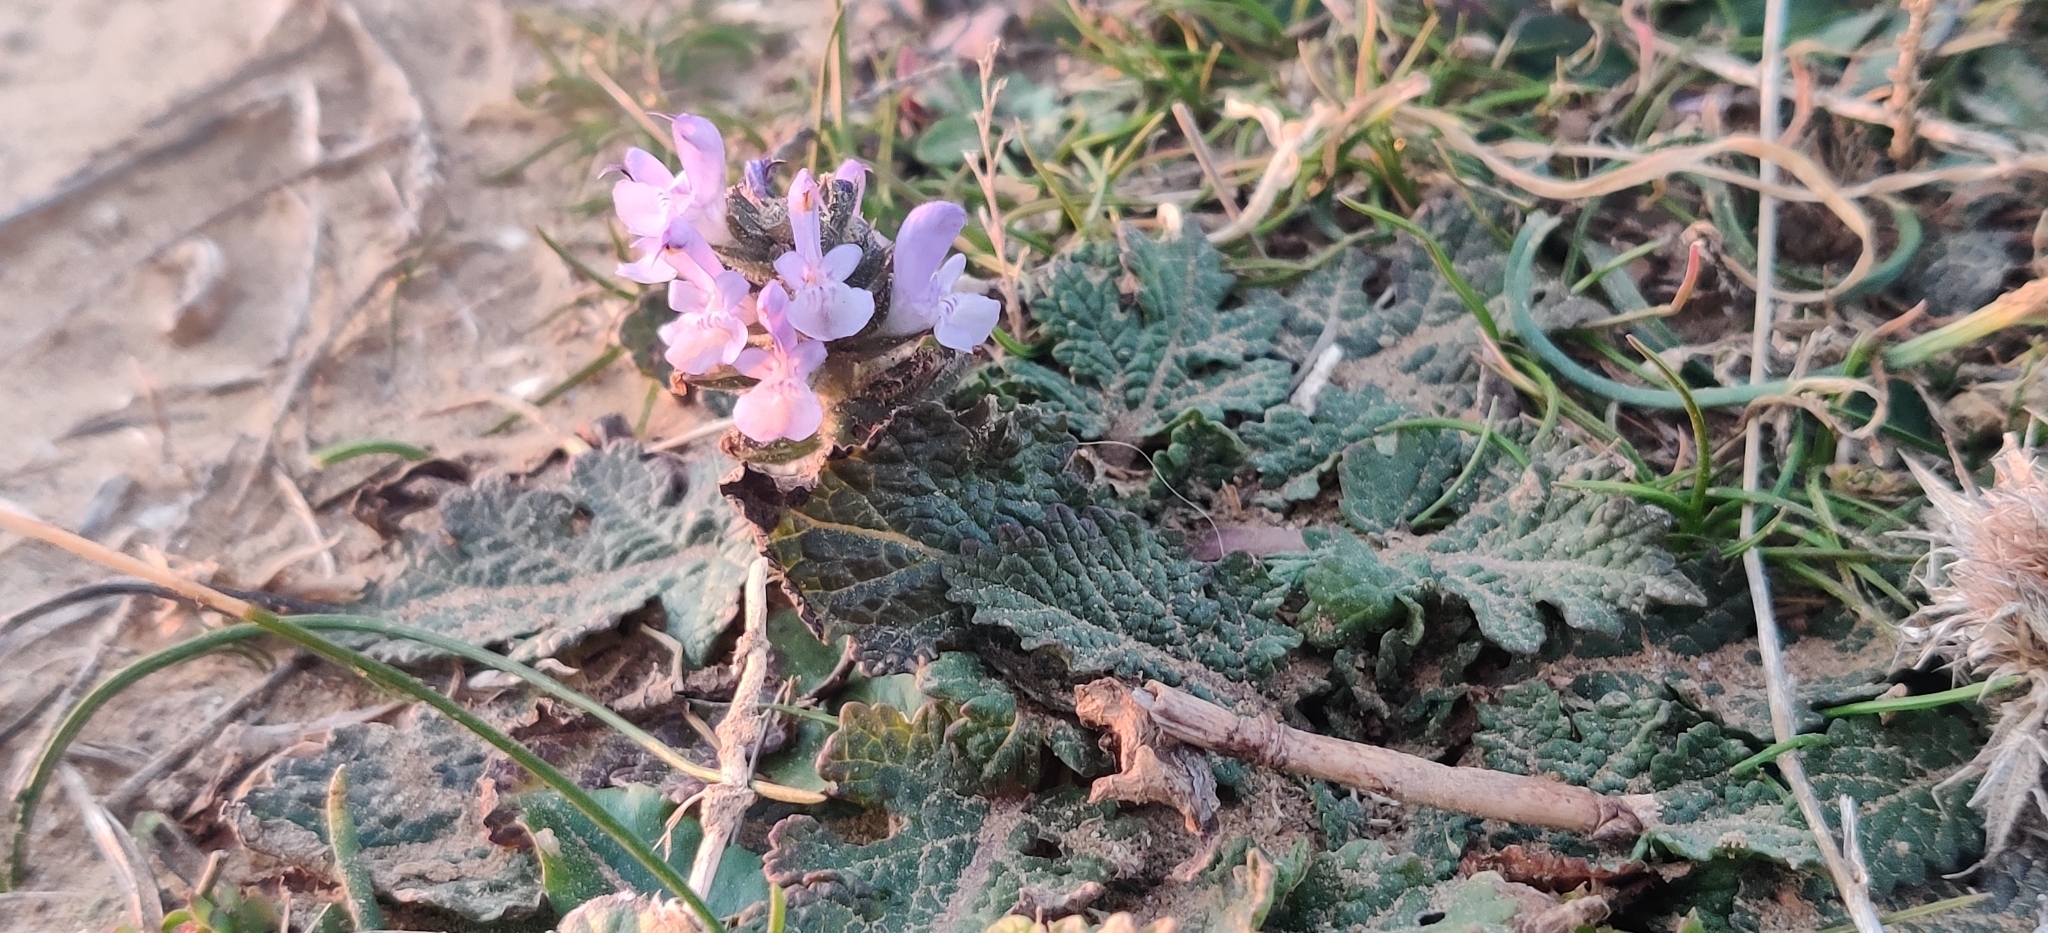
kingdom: Plantae
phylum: Tracheophyta
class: Magnoliopsida
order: Lamiales
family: Lamiaceae
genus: Salvia
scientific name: Salvia verbenaca
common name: Wild clary
